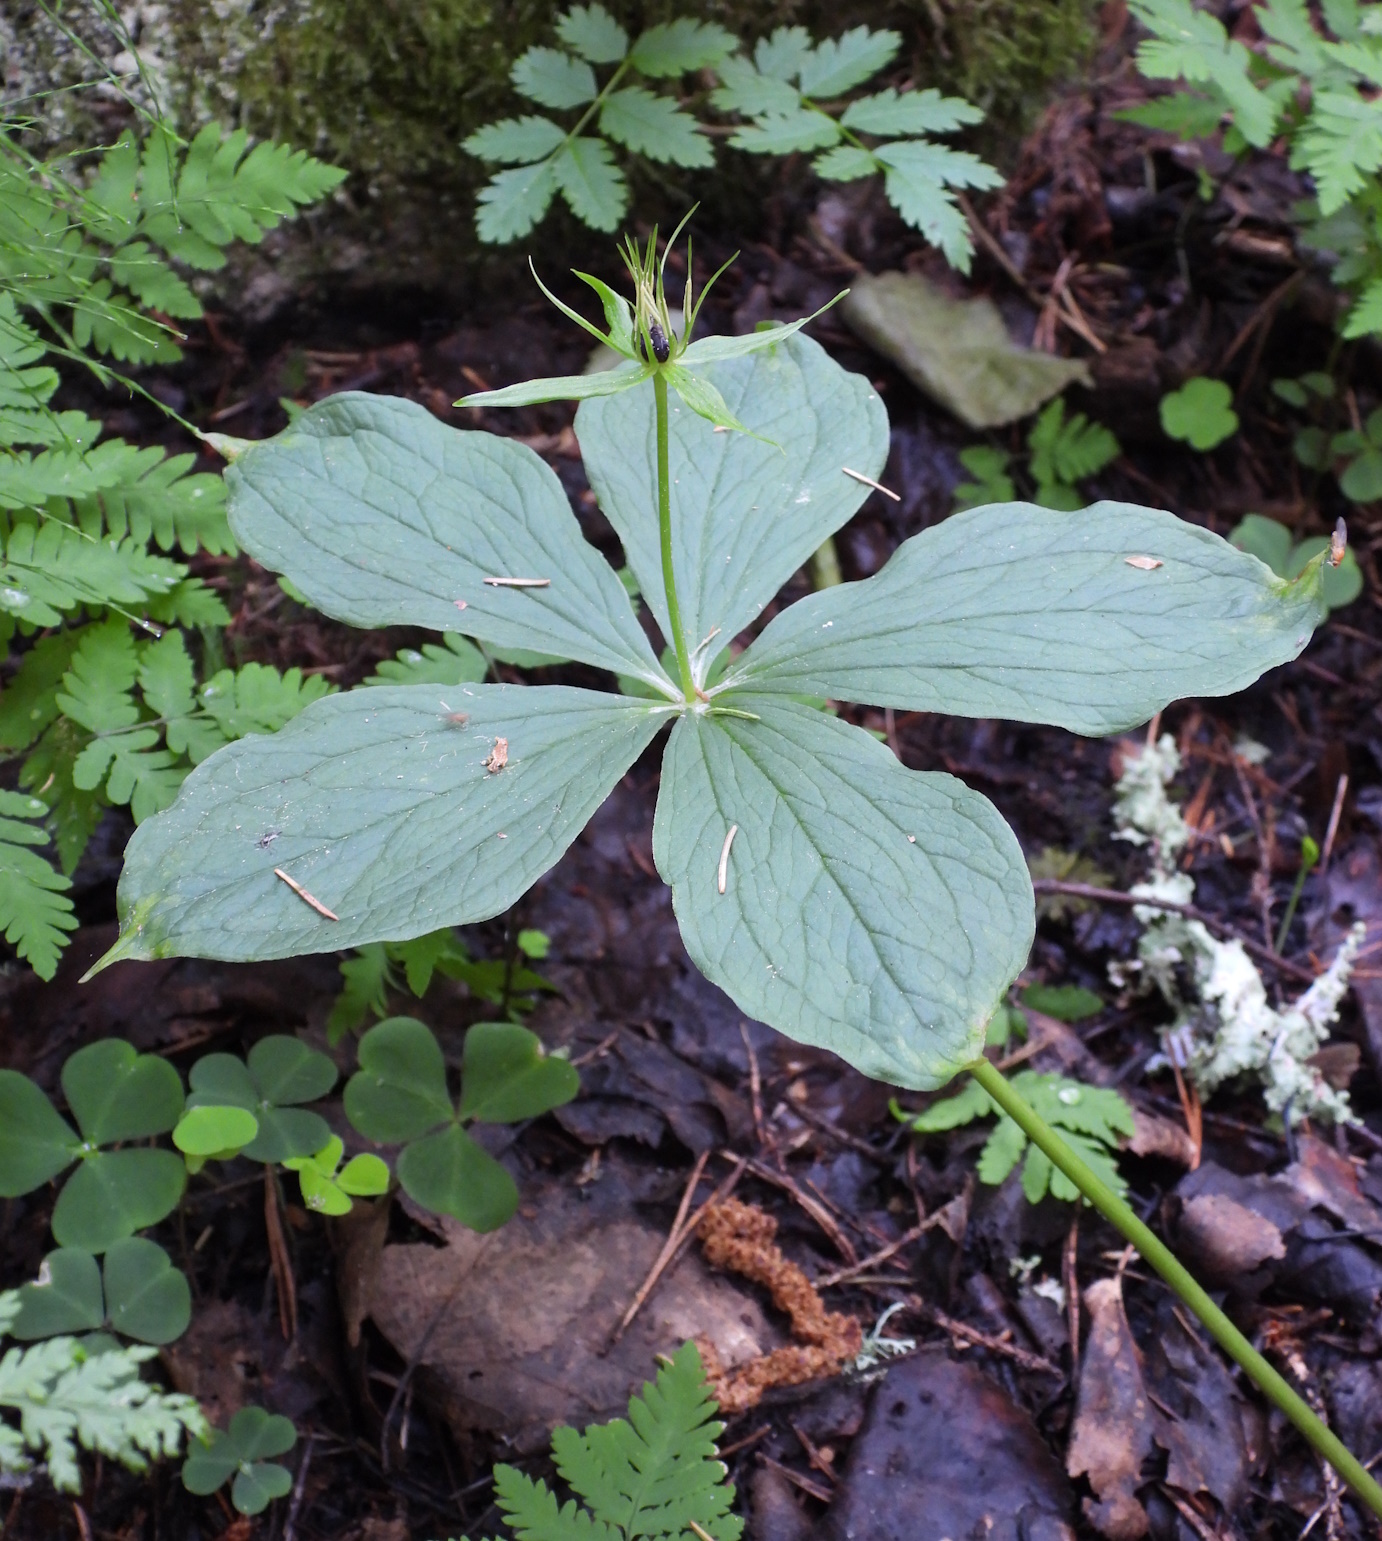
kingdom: Plantae
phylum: Tracheophyta
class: Liliopsida
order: Liliales
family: Melanthiaceae
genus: Paris
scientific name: Paris quadrifolia
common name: Herb-paris
